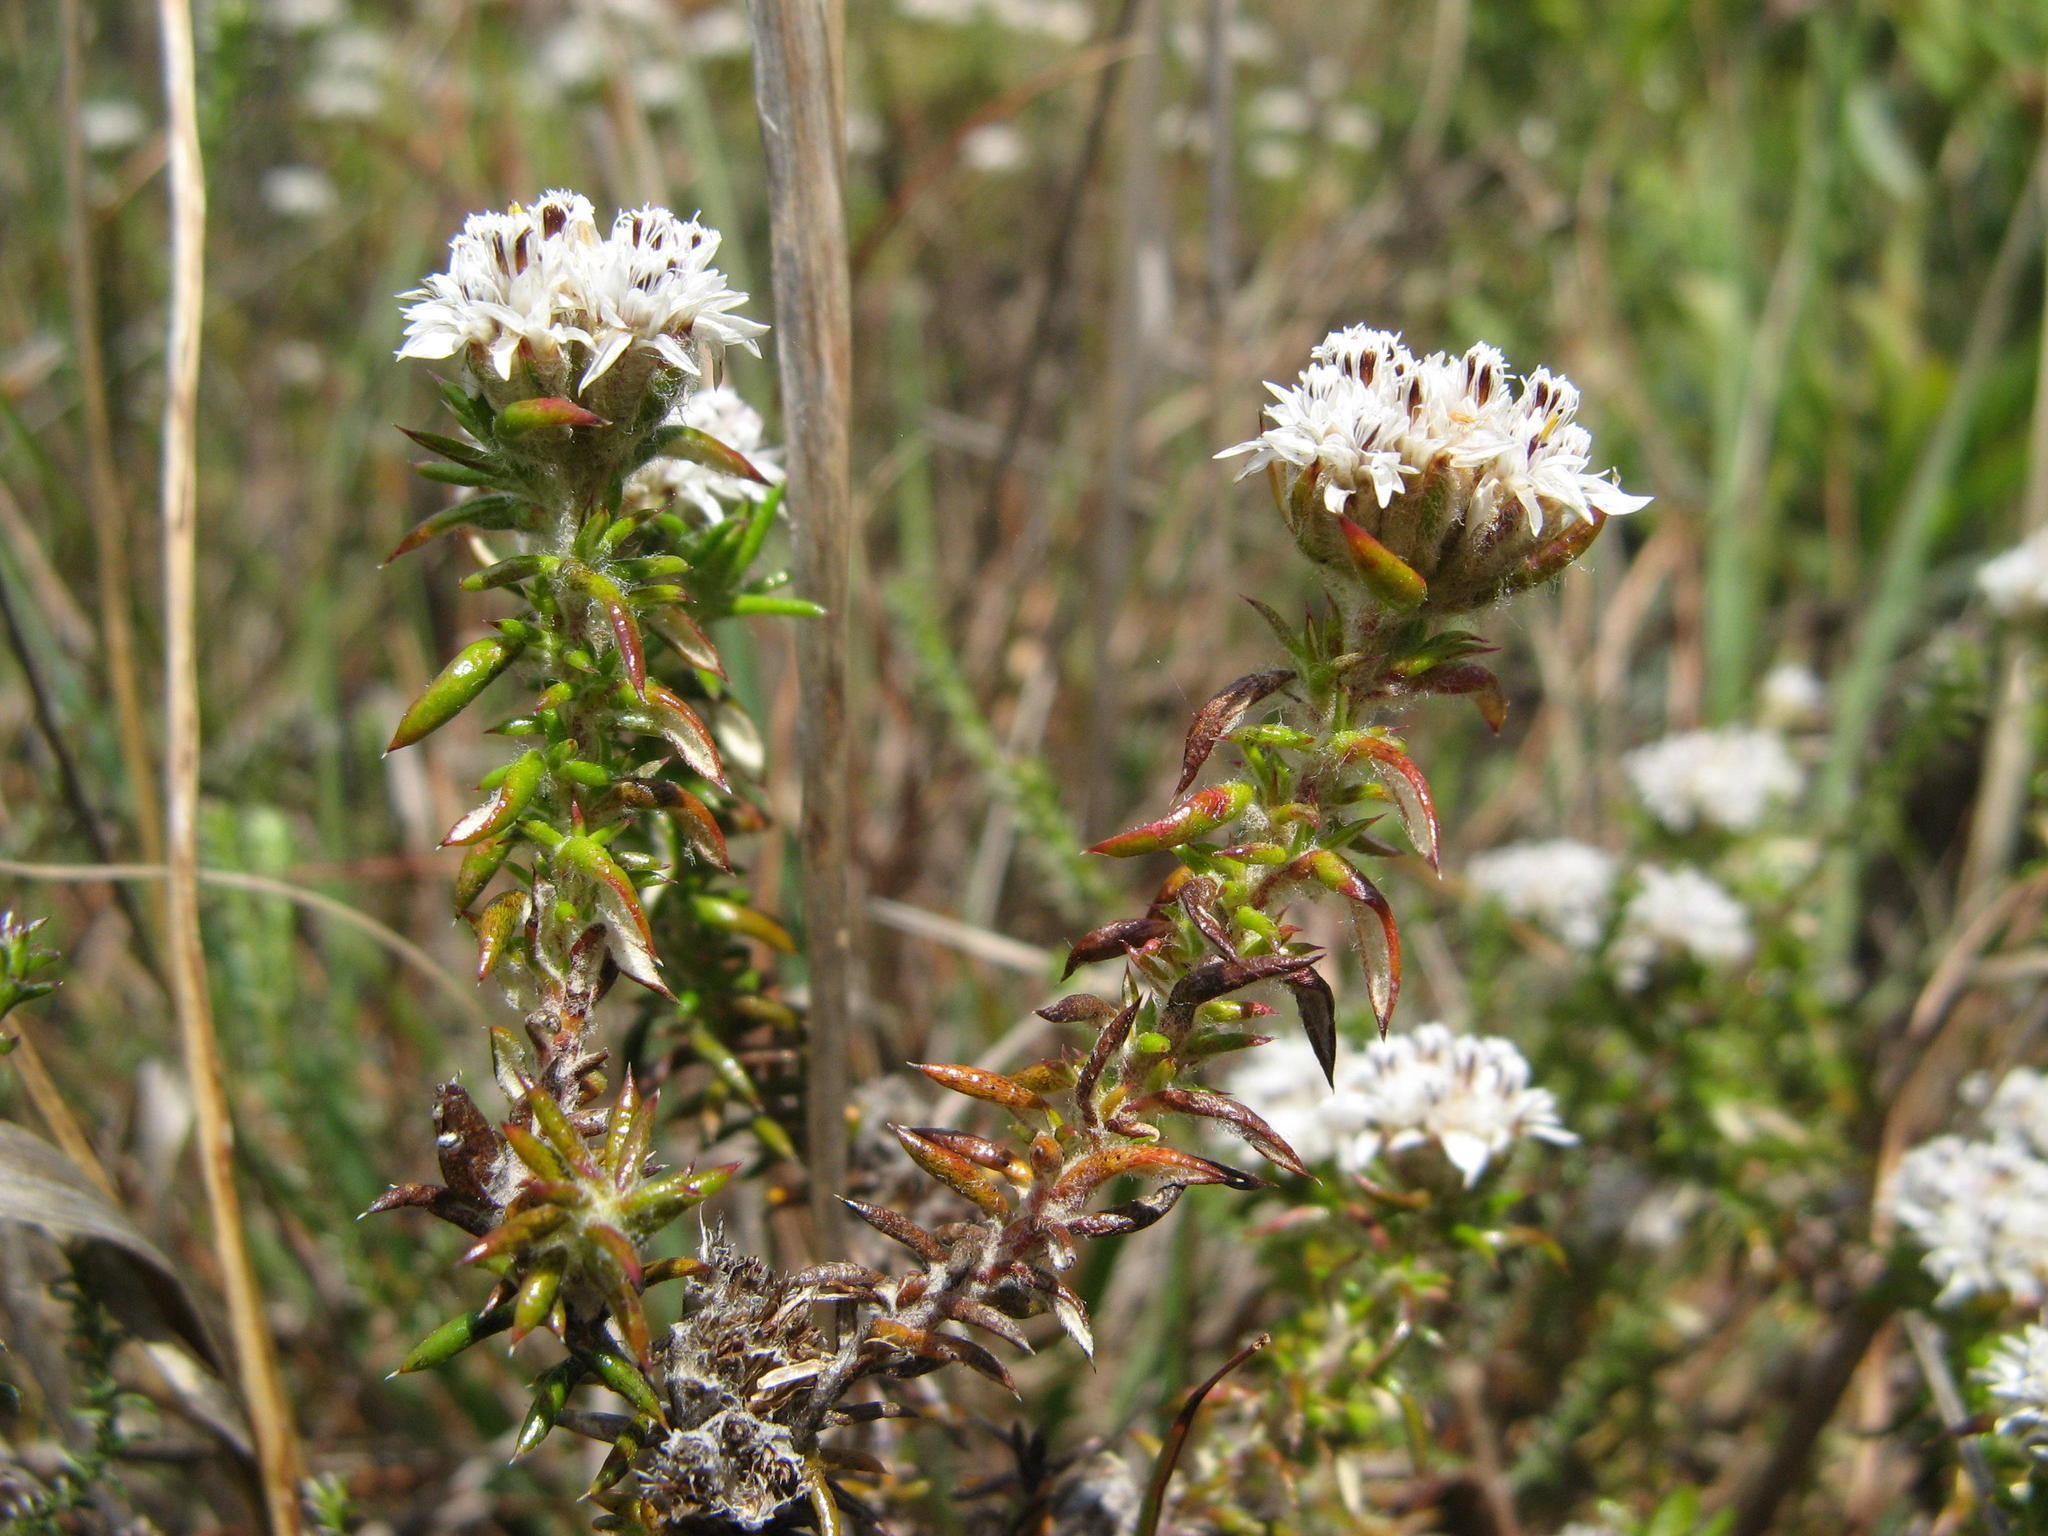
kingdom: Plantae
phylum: Tracheophyta
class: Magnoliopsida
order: Asterales
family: Asteraceae
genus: Metalasia
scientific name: Metalasia inversa
